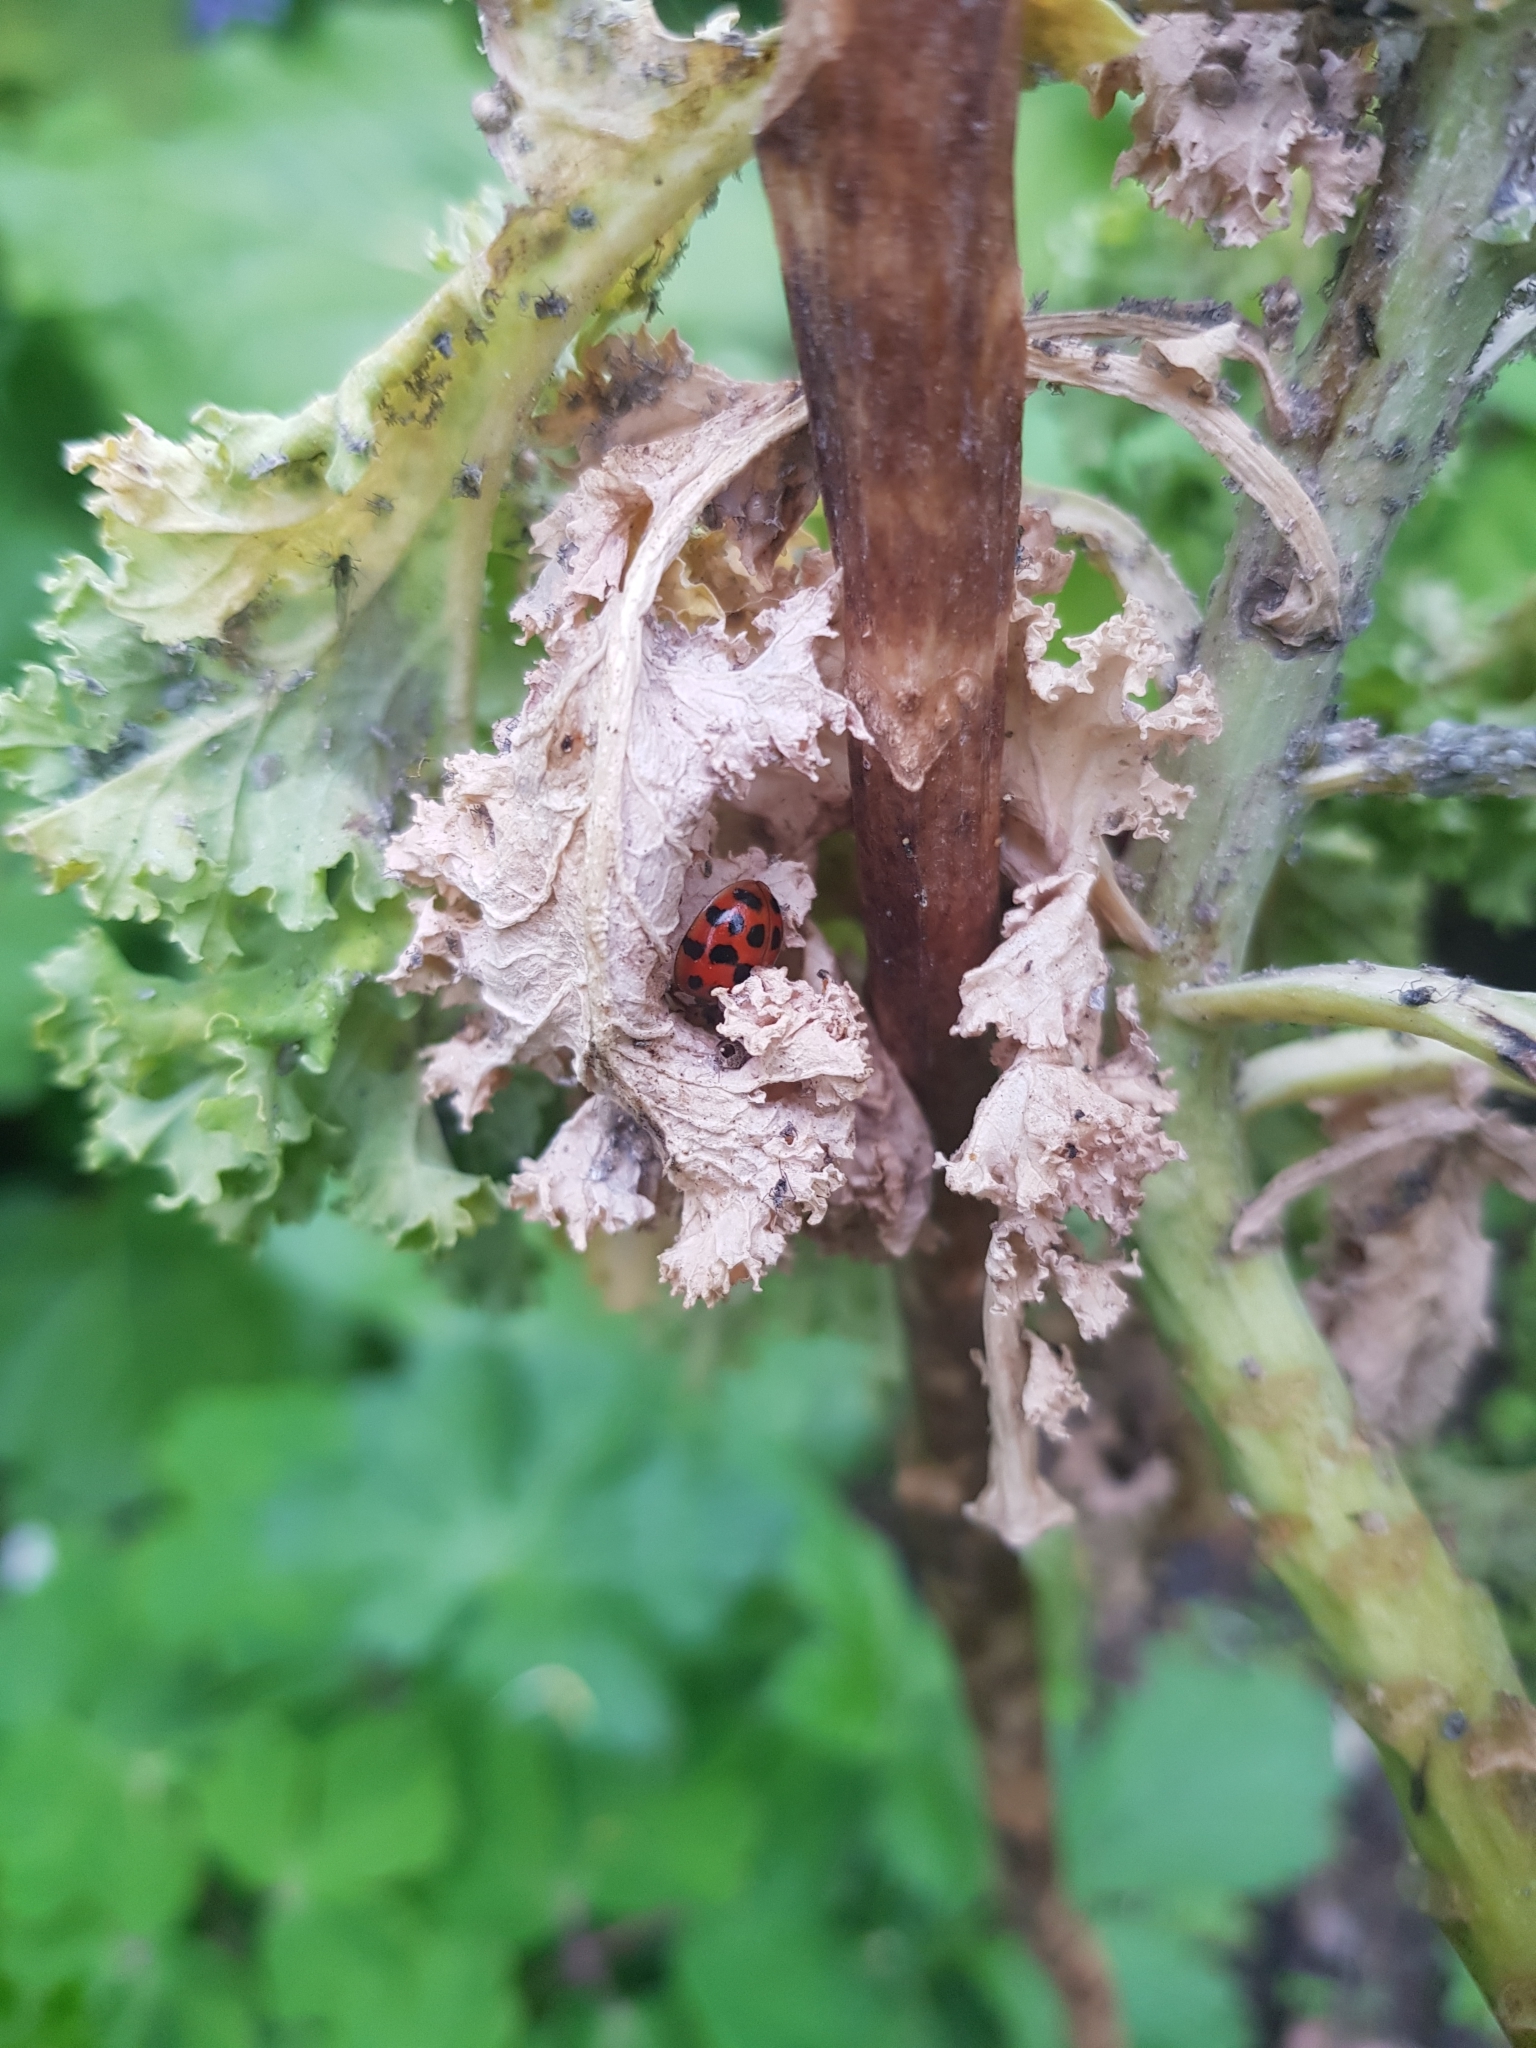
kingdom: Animalia
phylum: Arthropoda
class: Insecta
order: Coleoptera
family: Coccinellidae
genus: Harmonia
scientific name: Harmonia axyridis
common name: Harlequin ladybird
